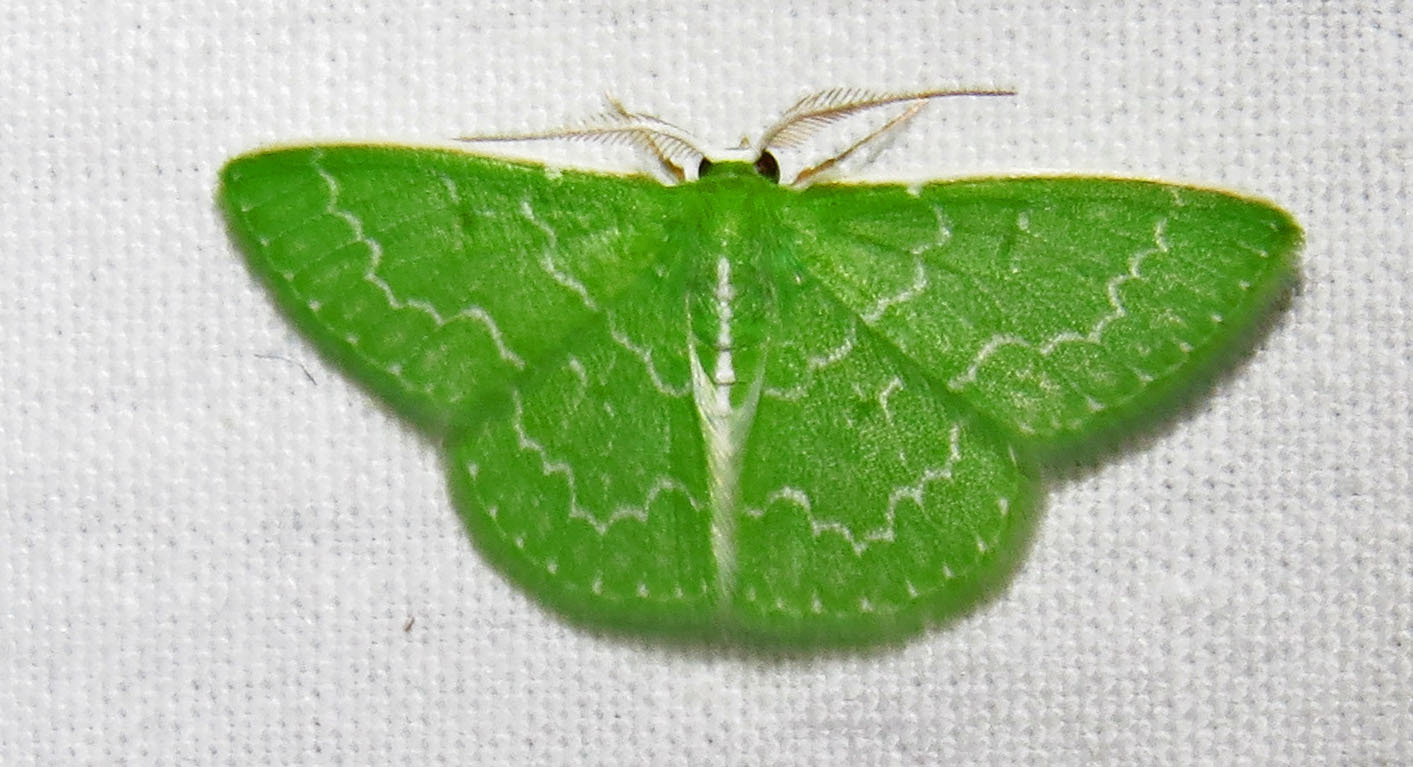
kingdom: Animalia
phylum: Arthropoda
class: Insecta
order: Lepidoptera
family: Geometridae
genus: Synchlora
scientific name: Synchlora frondaria
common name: Southern emerald
